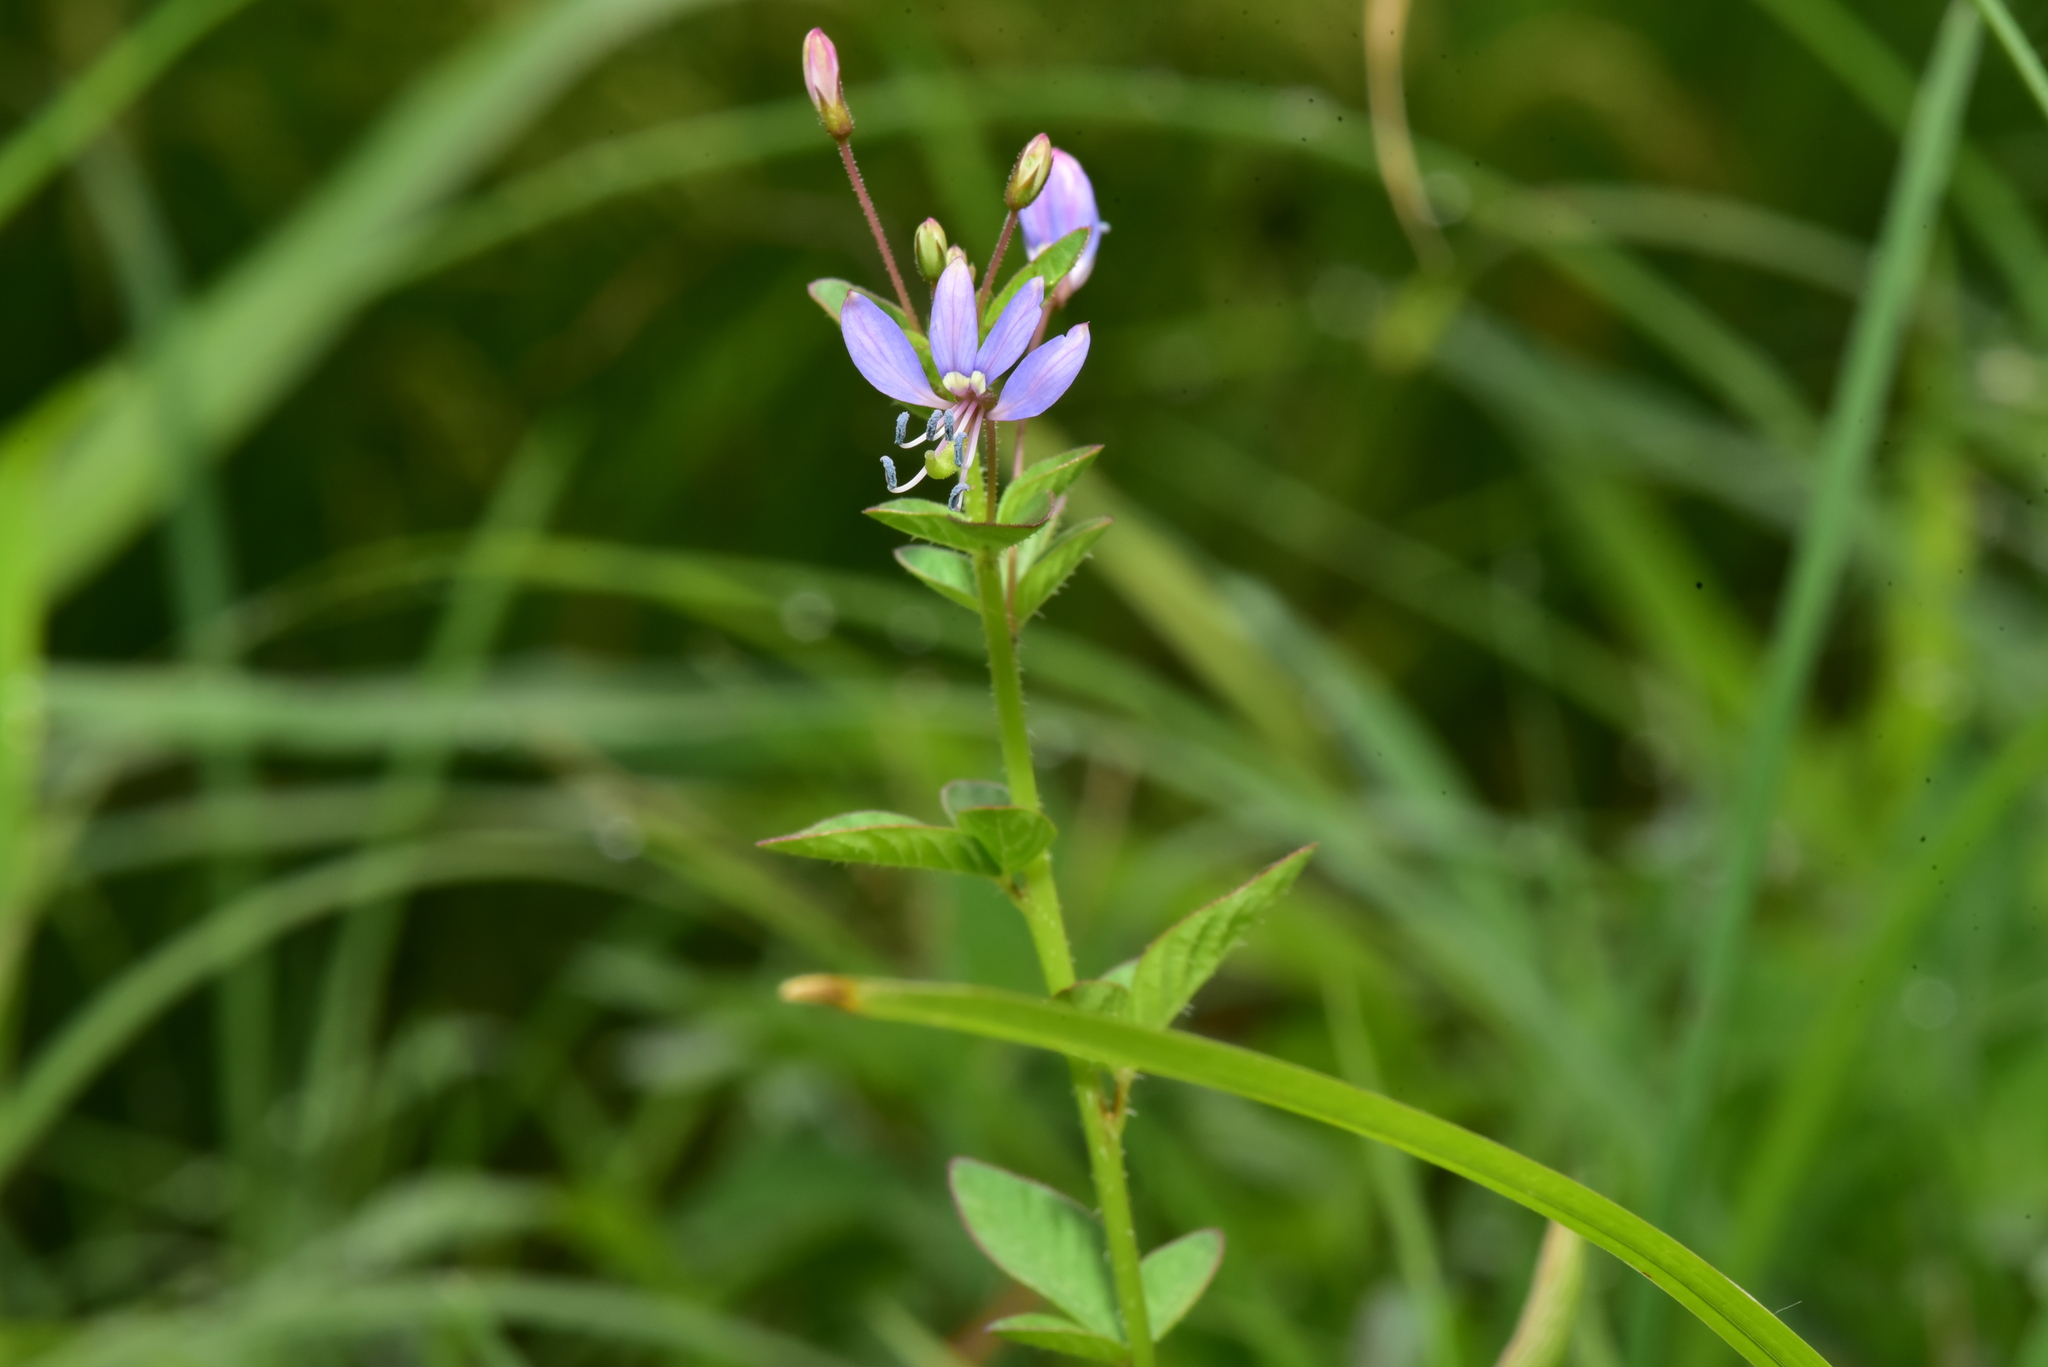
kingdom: Plantae
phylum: Tracheophyta
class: Magnoliopsida
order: Brassicales
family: Cleomaceae
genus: Sieruela
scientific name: Sieruela rutidosperma
